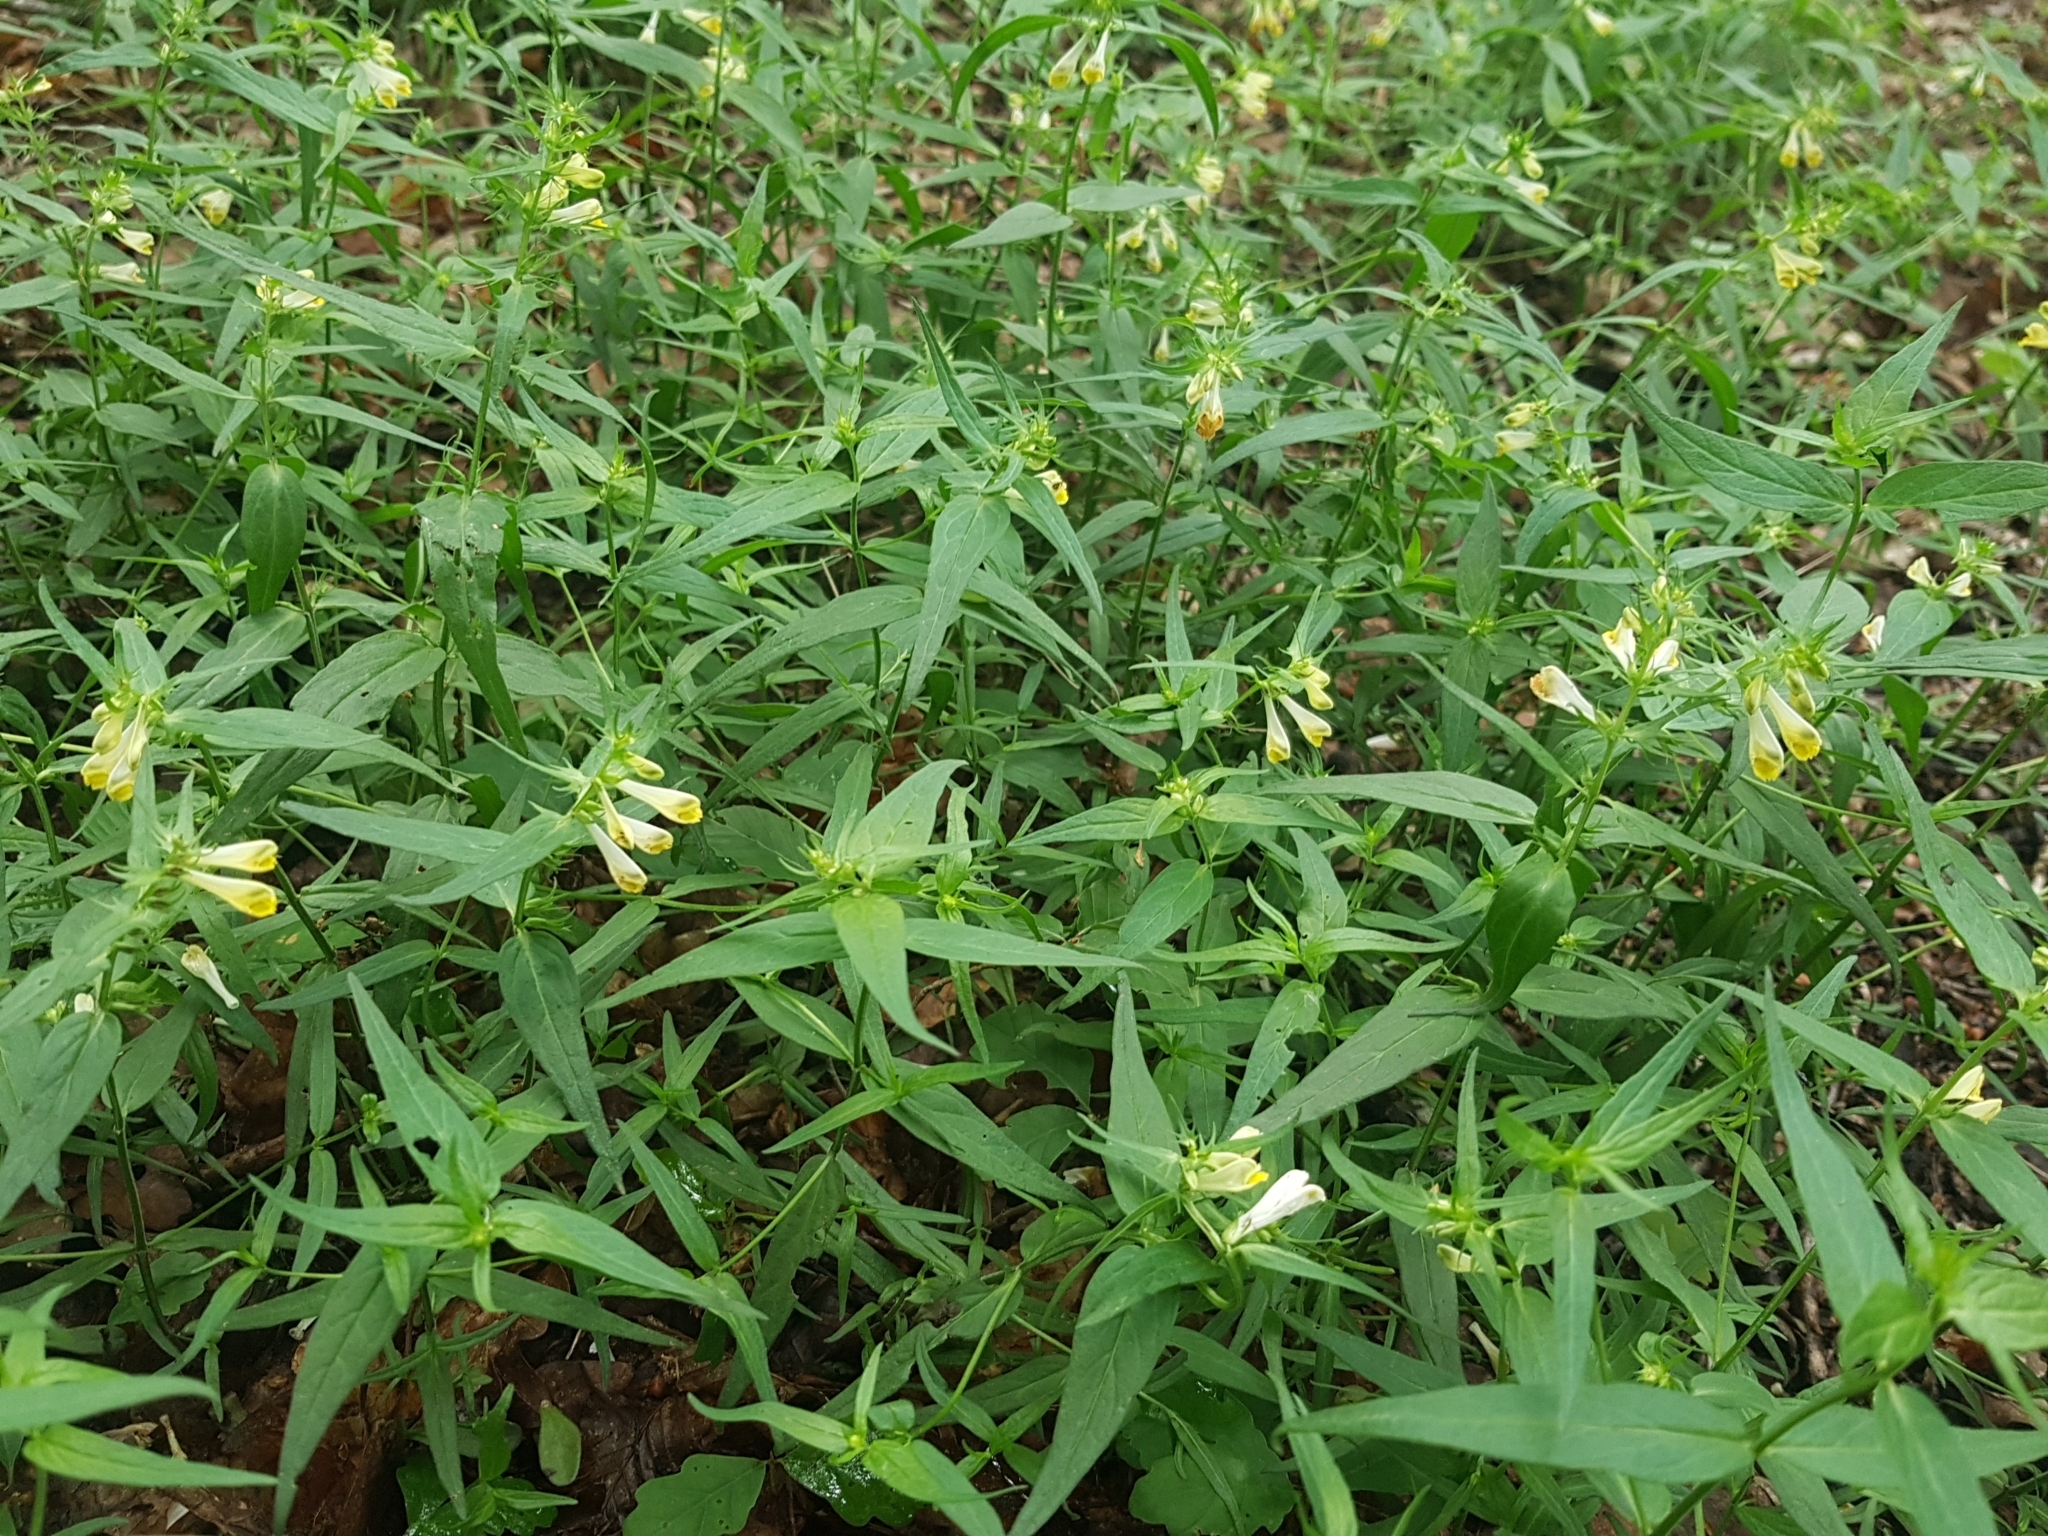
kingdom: Plantae
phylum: Tracheophyta
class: Magnoliopsida
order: Lamiales
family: Orobanchaceae
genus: Melampyrum
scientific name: Melampyrum pratense
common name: Common cow-wheat
